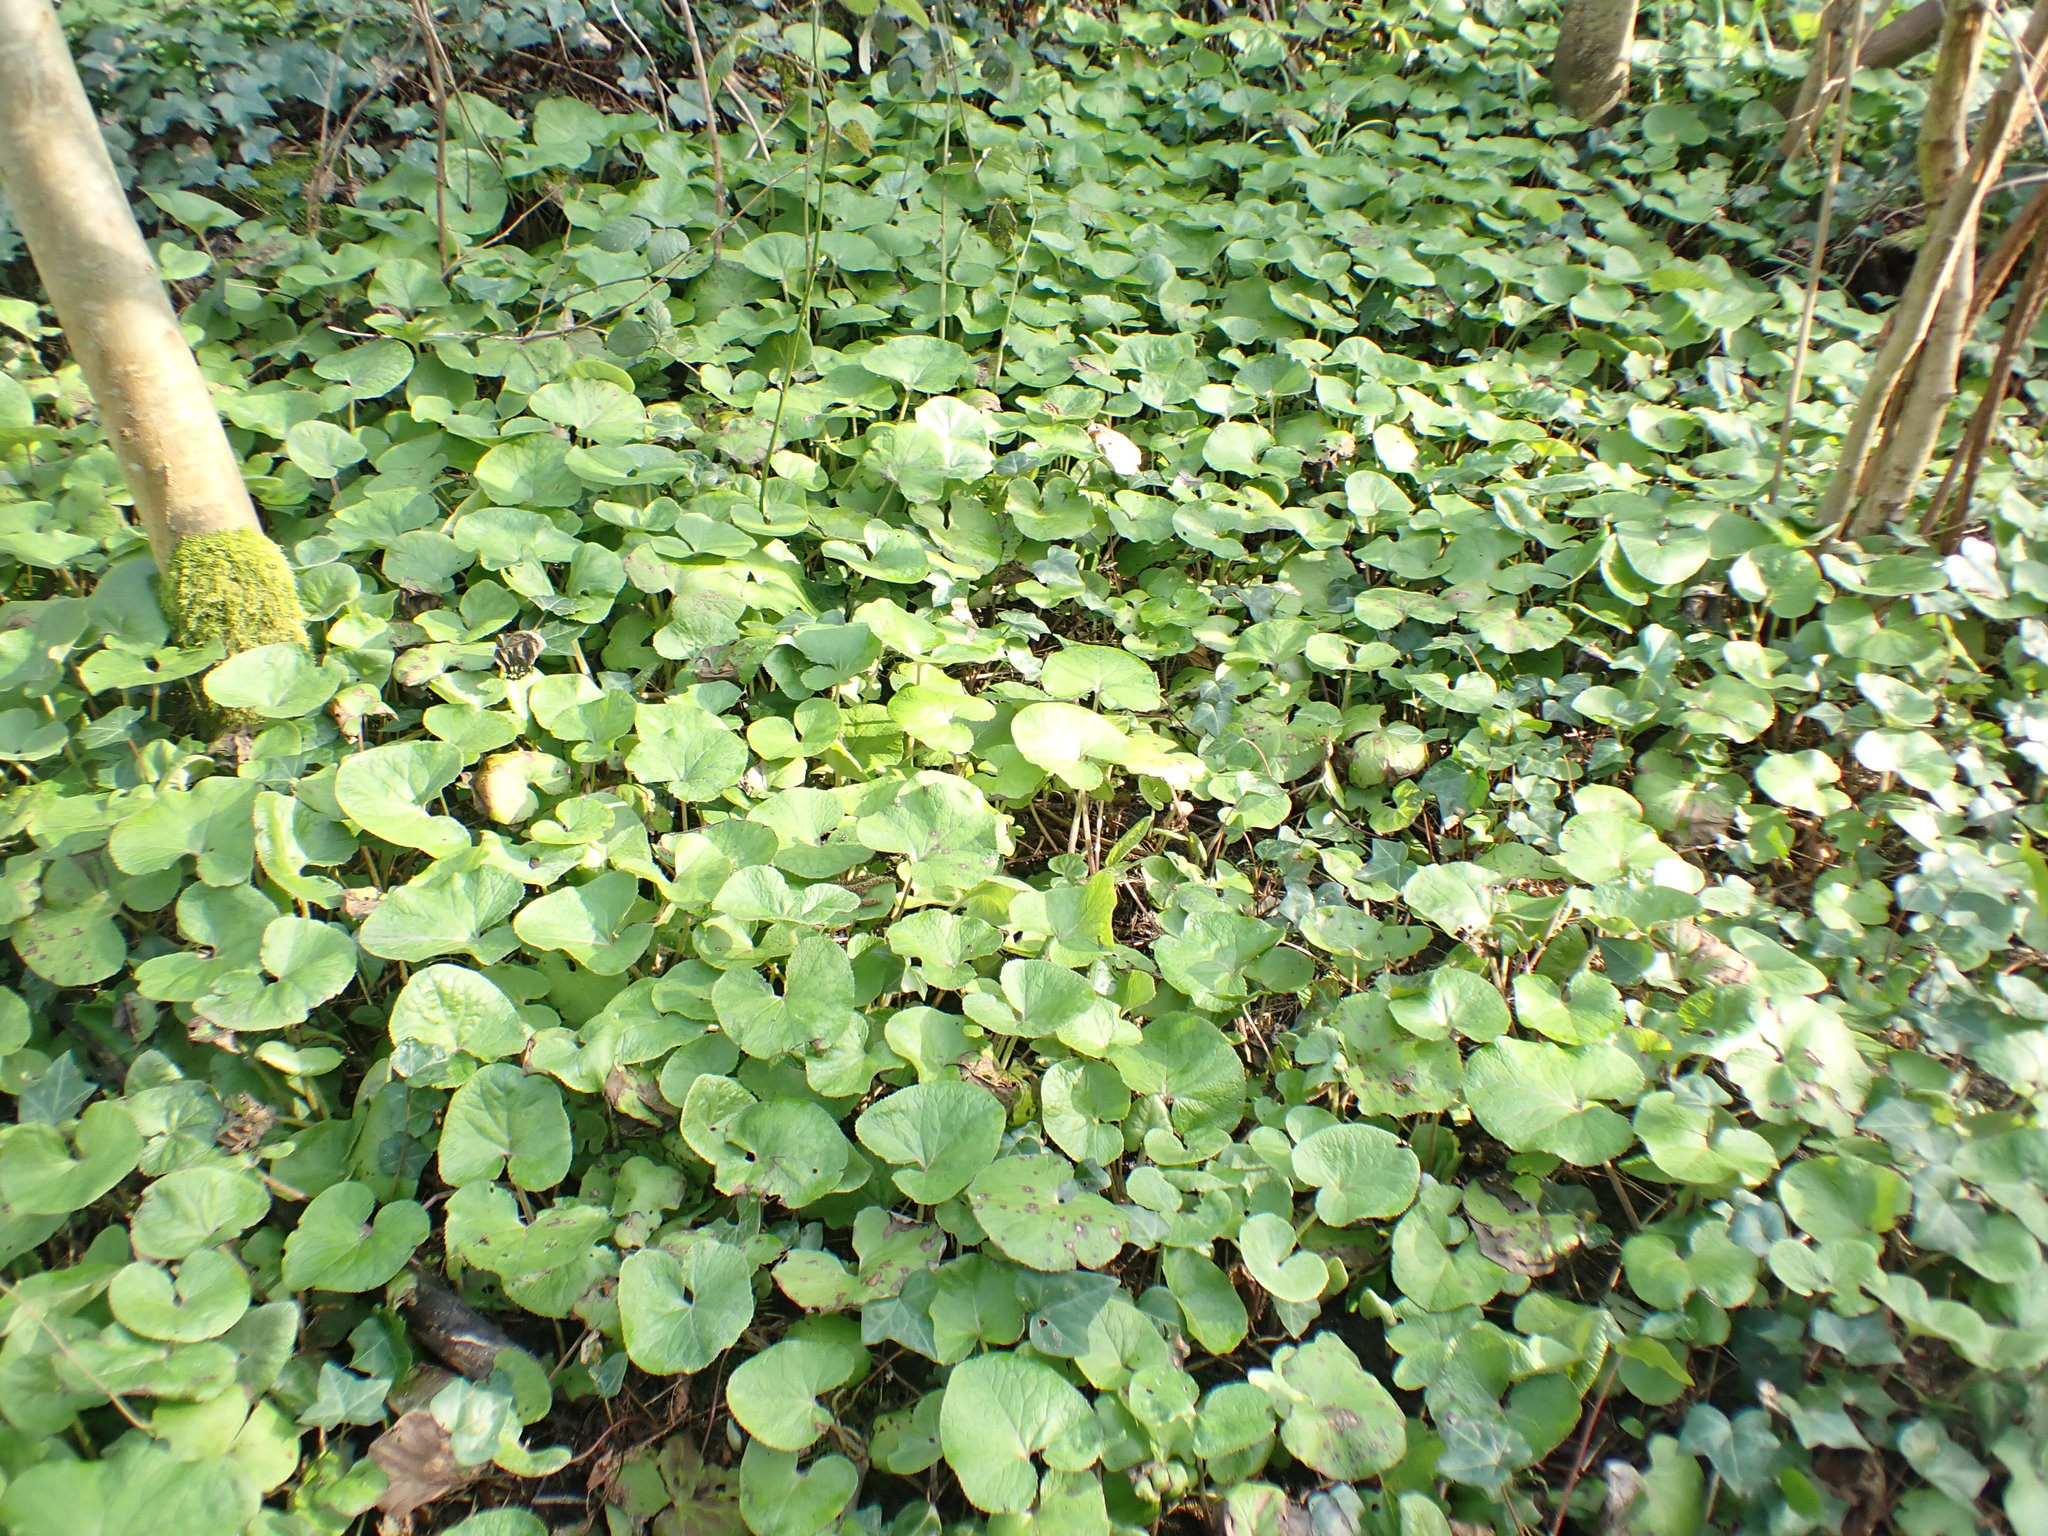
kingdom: Plantae
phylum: Tracheophyta
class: Magnoliopsida
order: Asterales
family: Asteraceae
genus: Petasites
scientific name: Petasites pyrenaicus
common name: Winter heliotrope
